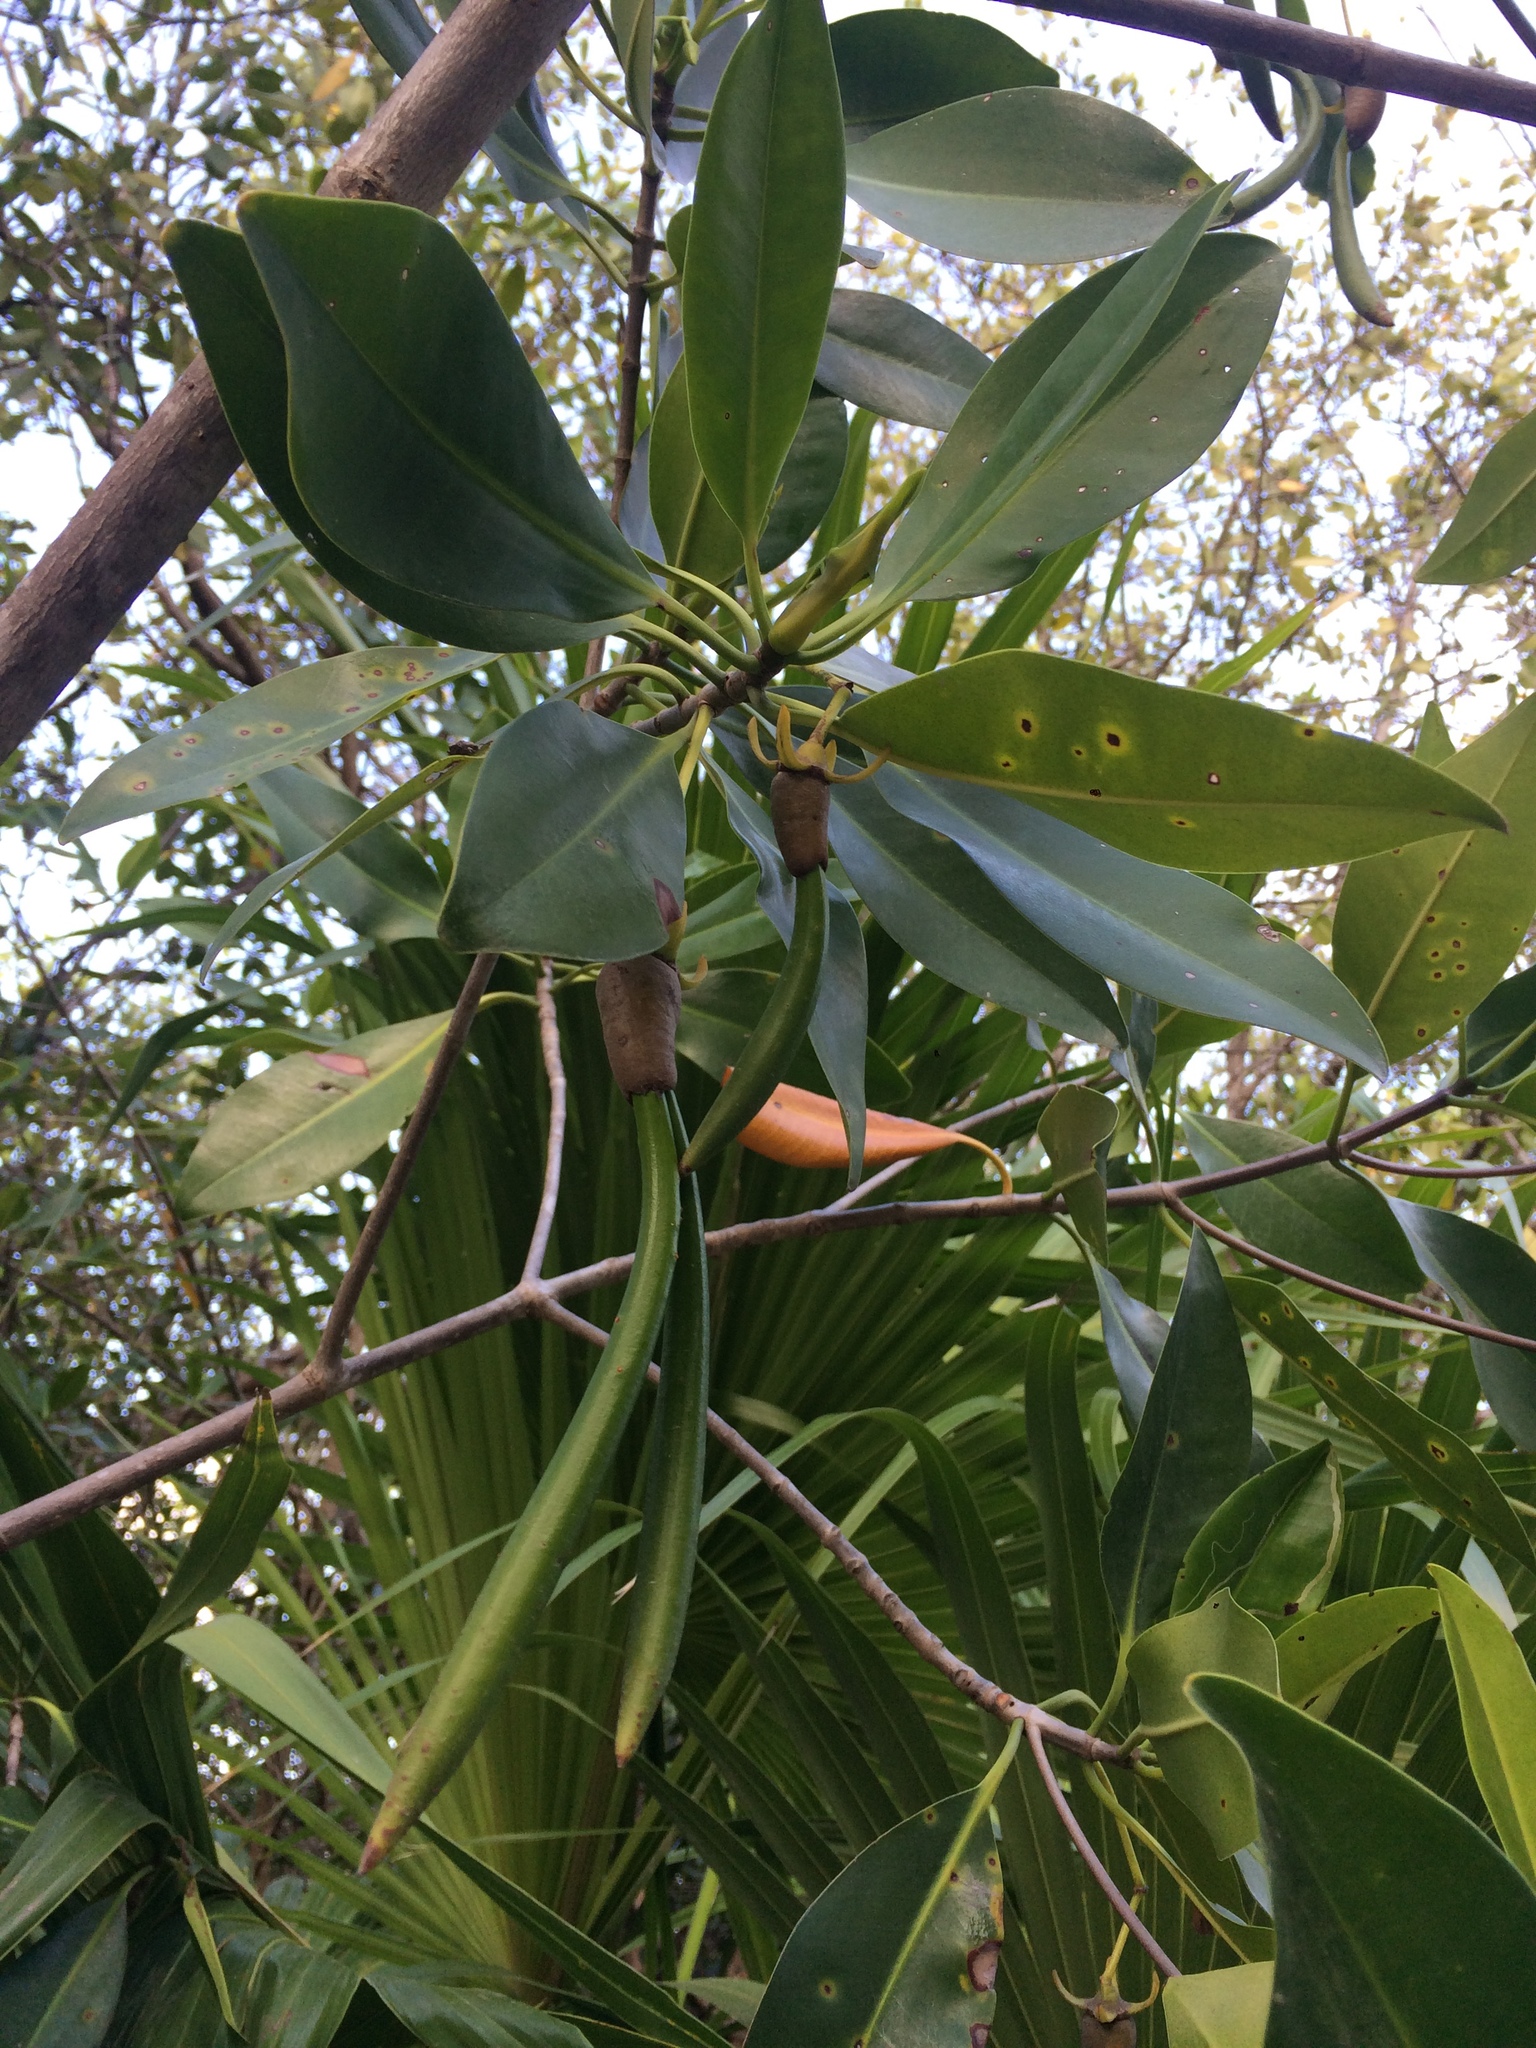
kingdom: Plantae
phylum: Tracheophyta
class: Magnoliopsida
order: Malpighiales
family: Rhizophoraceae
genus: Rhizophora
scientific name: Rhizophora mangle
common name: Red mangrove
